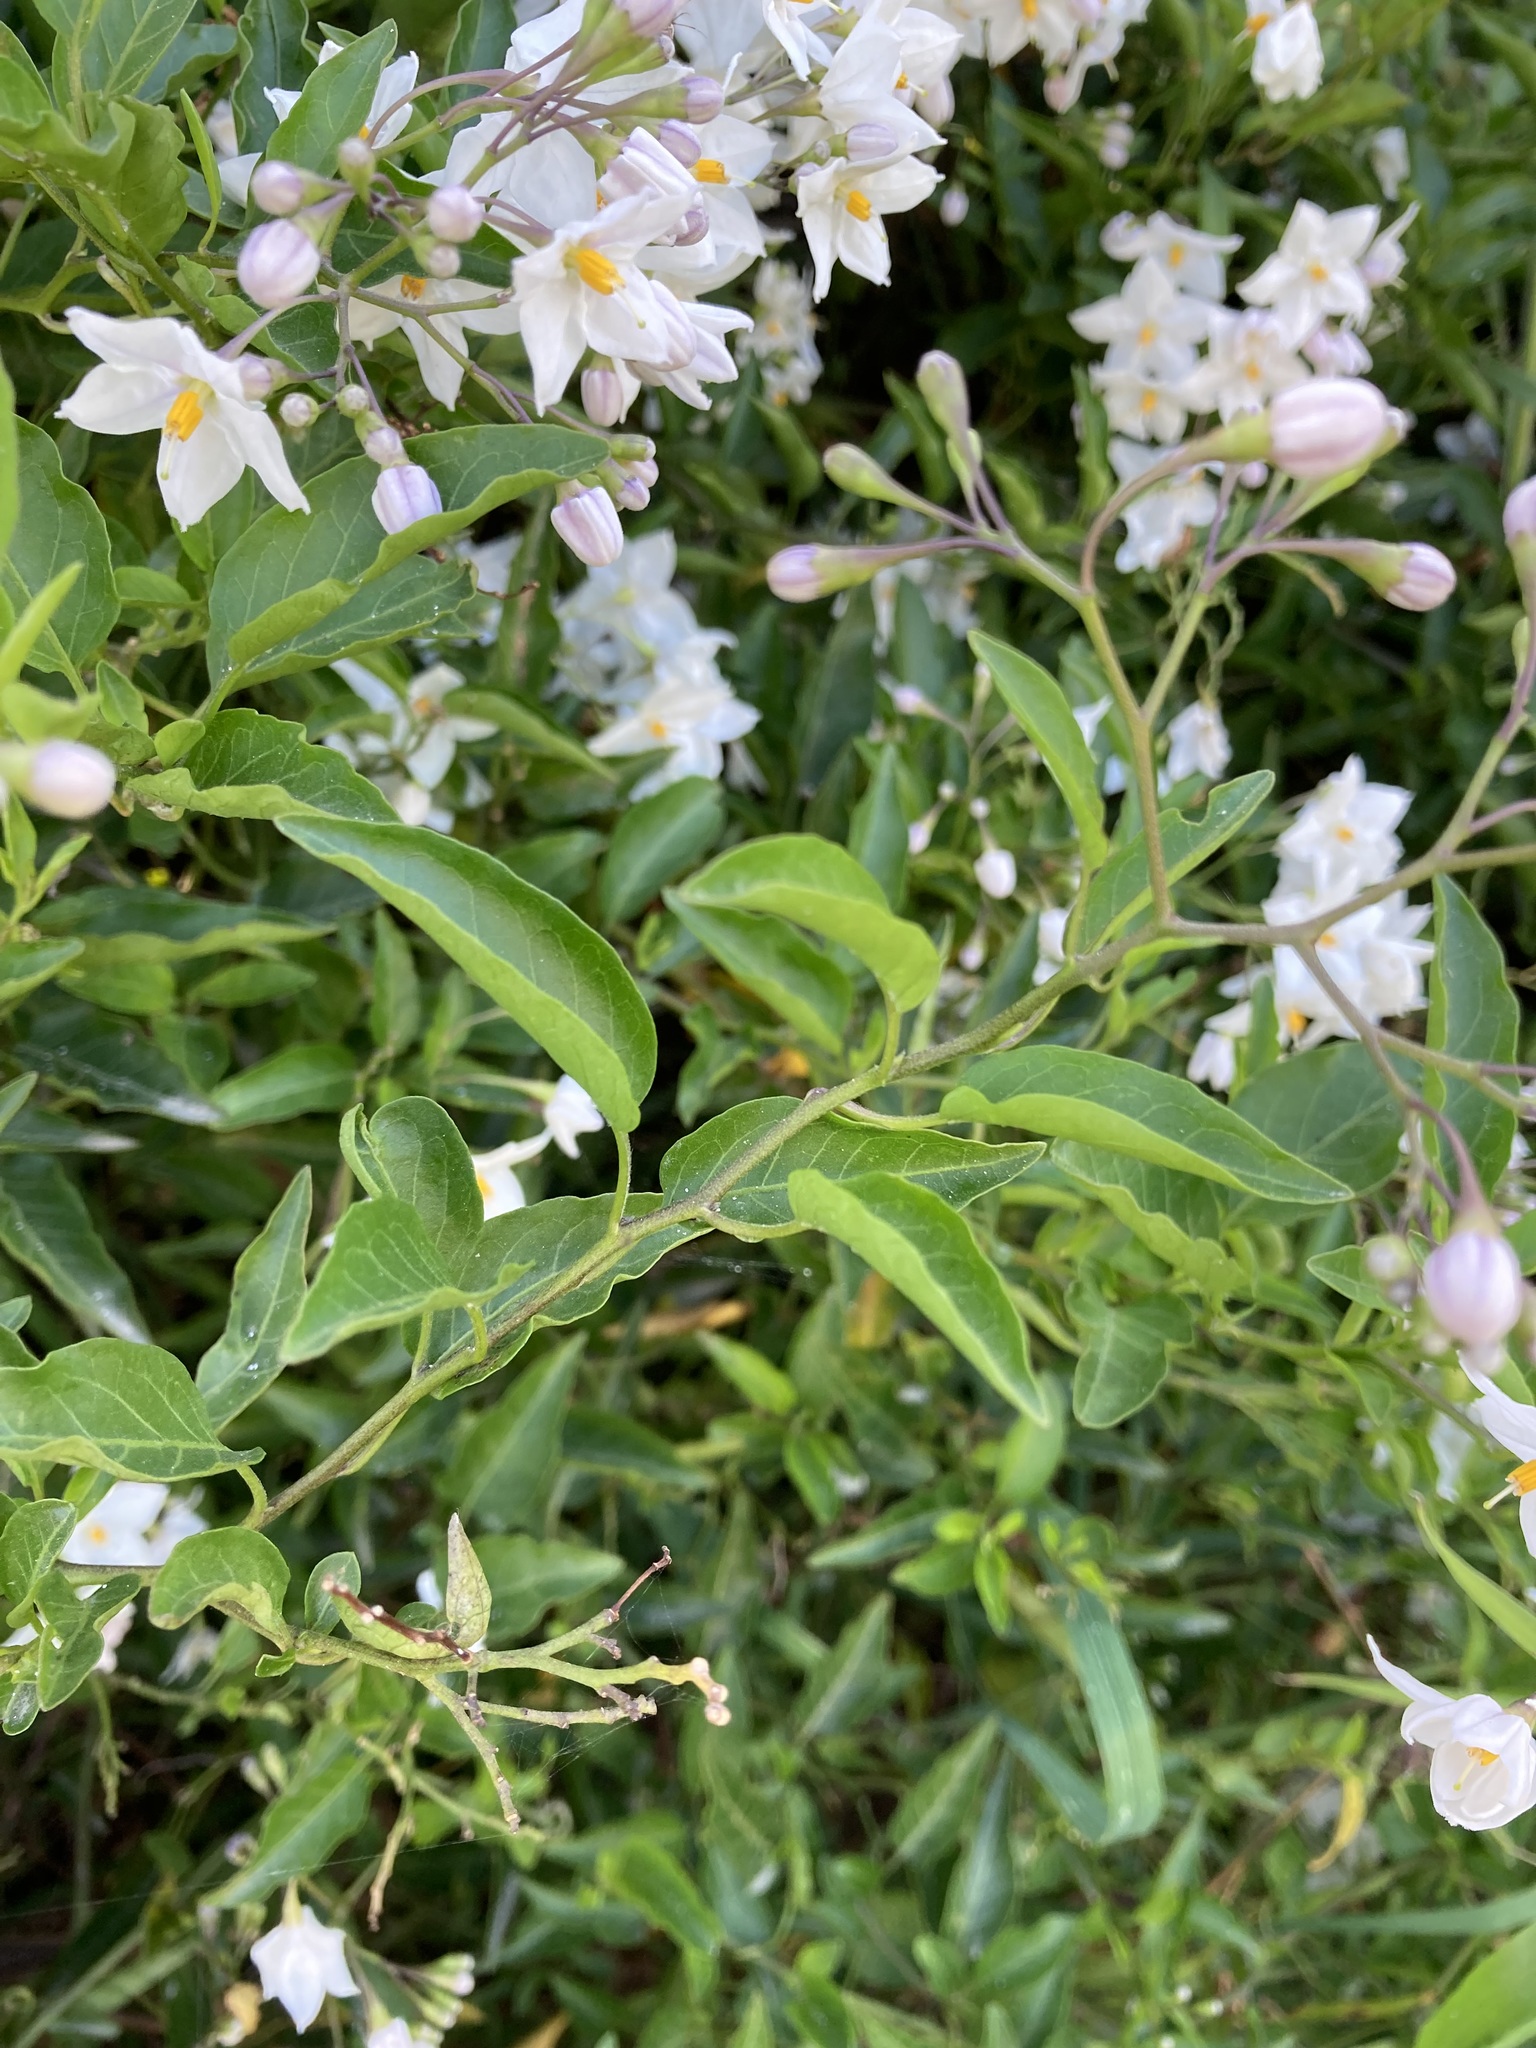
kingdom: Plantae
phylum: Tracheophyta
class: Magnoliopsida
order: Solanales
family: Solanaceae
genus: Solanum
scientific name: Solanum laxum
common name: Nightshade
